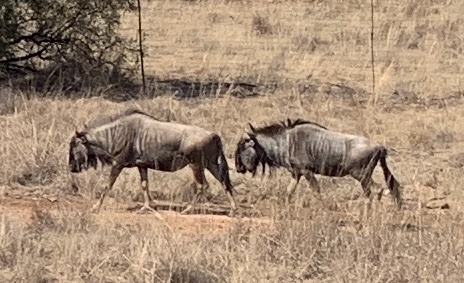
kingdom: Animalia
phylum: Chordata
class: Mammalia
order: Artiodactyla
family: Bovidae
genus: Connochaetes
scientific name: Connochaetes taurinus
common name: Blue wildebeest
